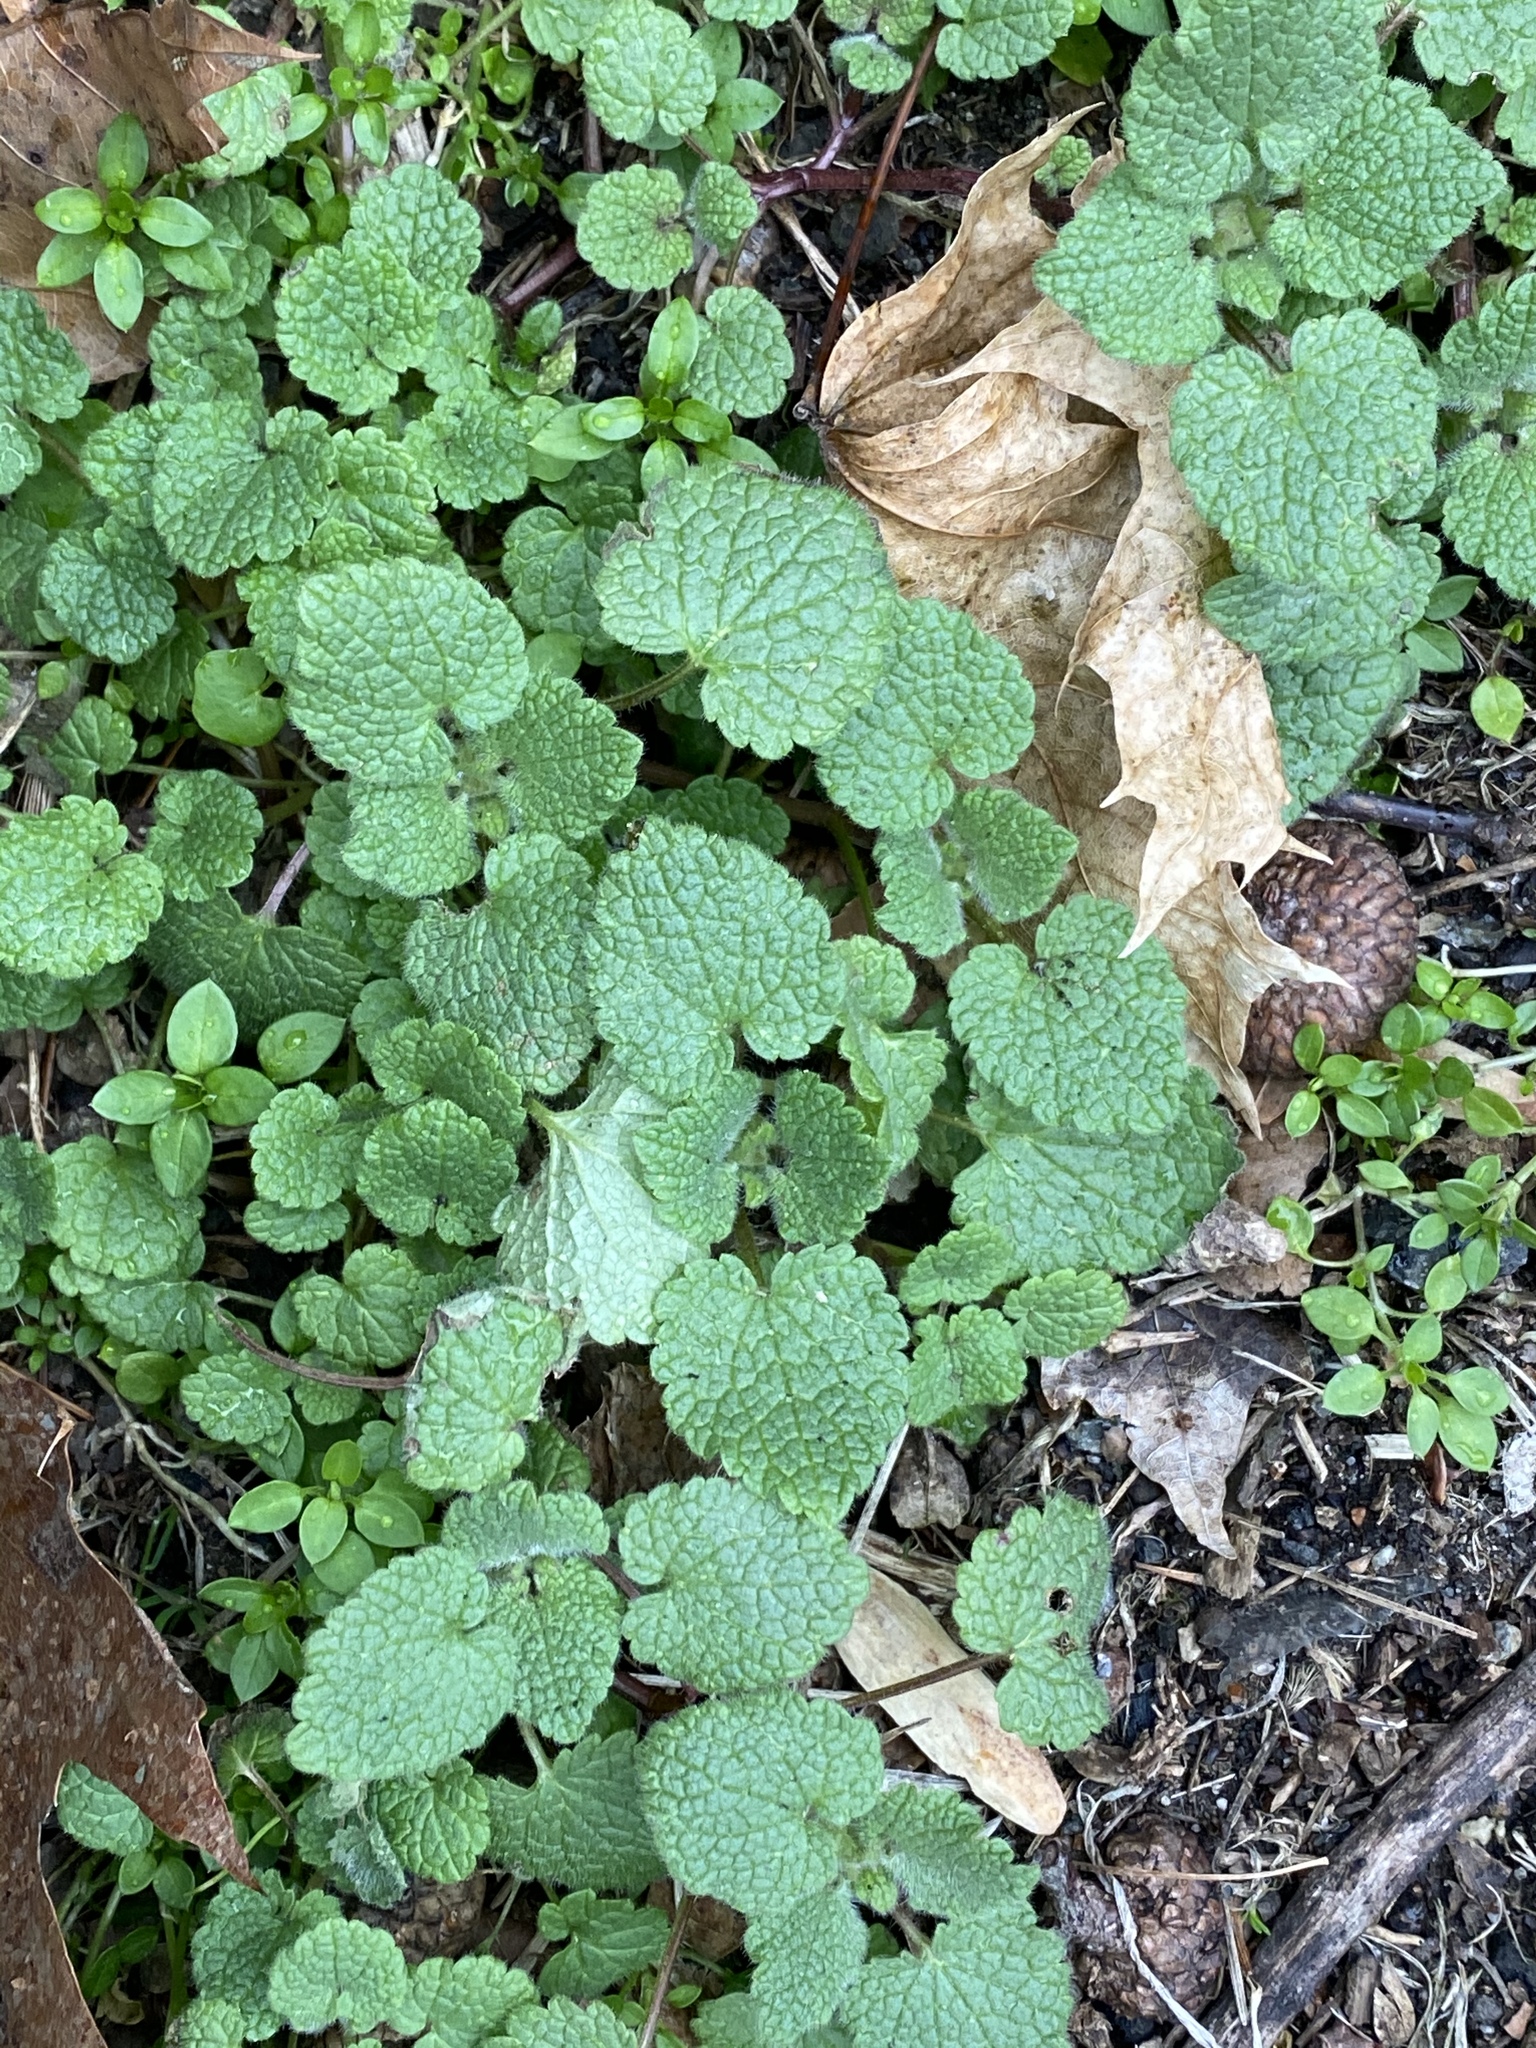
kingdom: Plantae
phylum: Tracheophyta
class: Magnoliopsida
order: Lamiales
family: Lamiaceae
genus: Lamium
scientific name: Lamium purpureum
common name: Red dead-nettle
